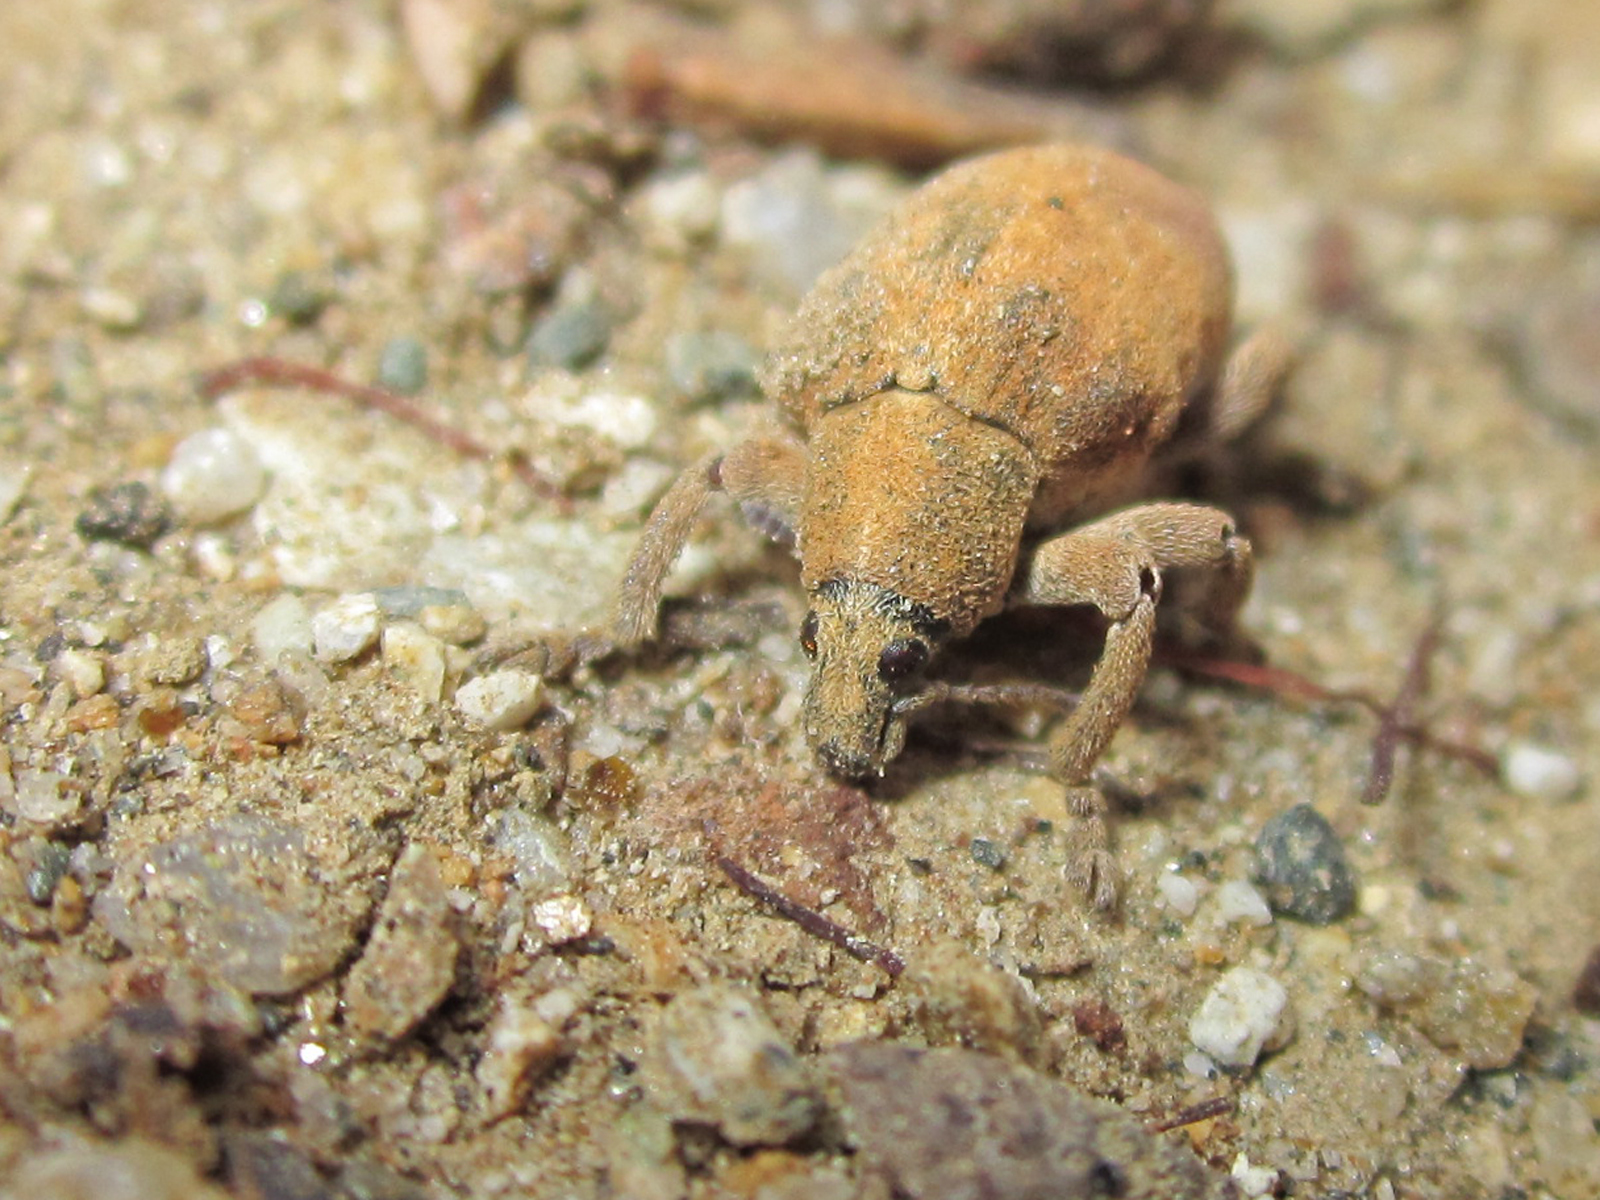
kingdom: Animalia
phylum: Arthropoda
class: Insecta
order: Coleoptera
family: Curculionidae
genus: Gonipterus
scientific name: Gonipterus platensis
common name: Eucalyptus snout beetle
